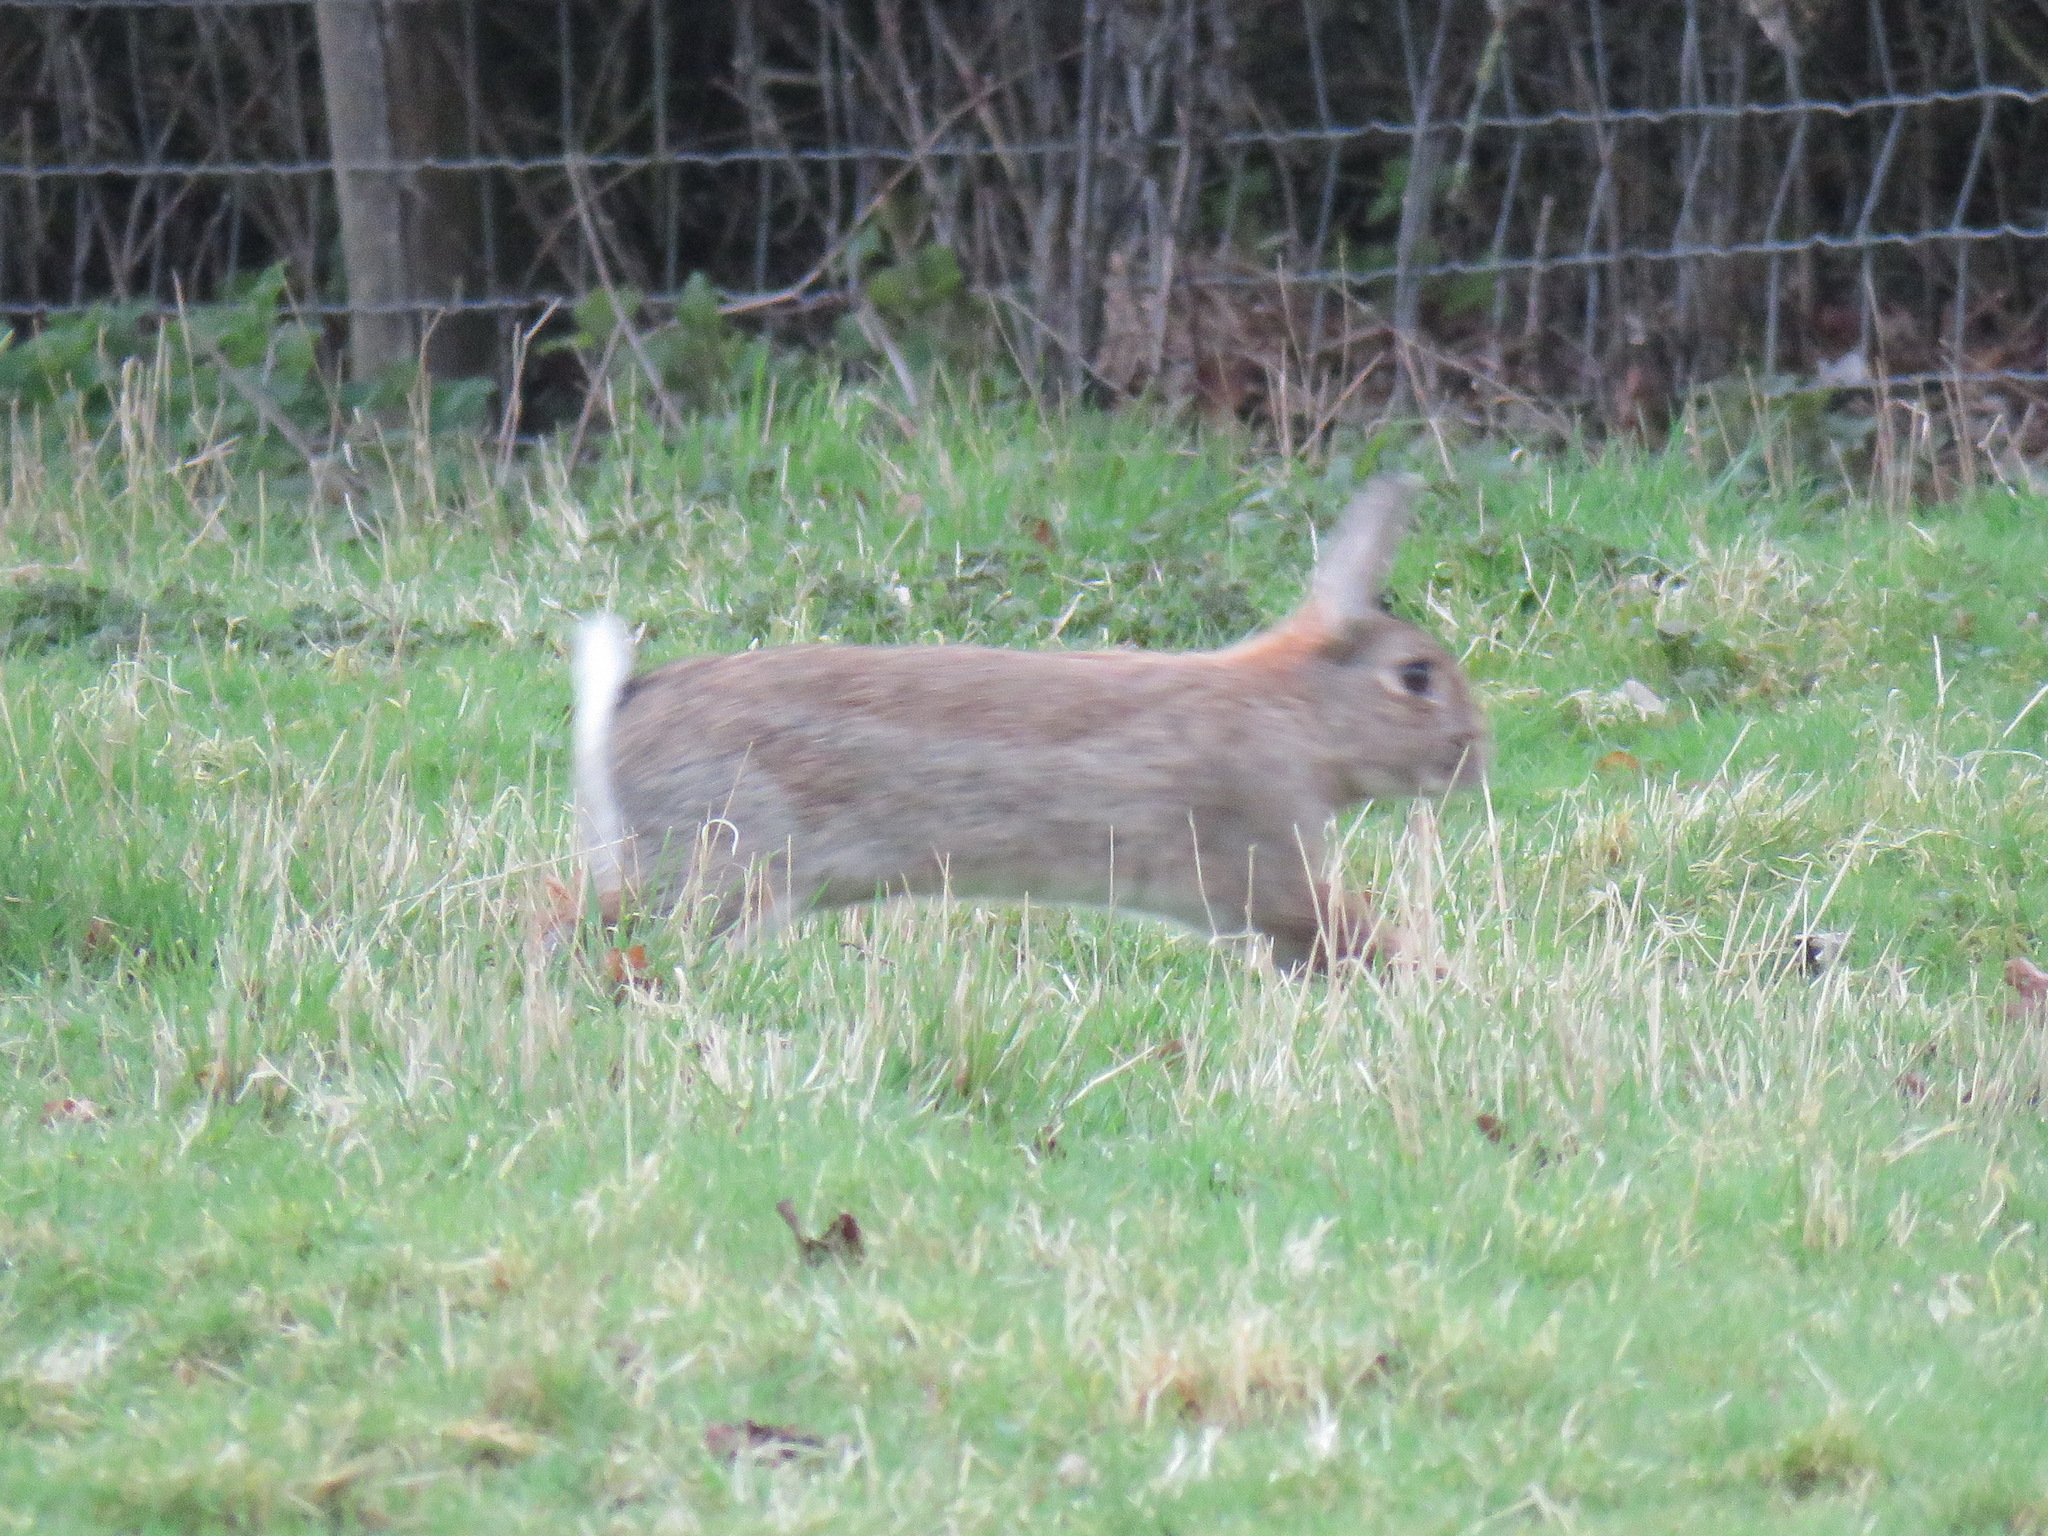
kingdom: Animalia
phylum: Chordata
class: Mammalia
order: Lagomorpha
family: Leporidae
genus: Oryctolagus
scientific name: Oryctolagus cuniculus
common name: European rabbit
